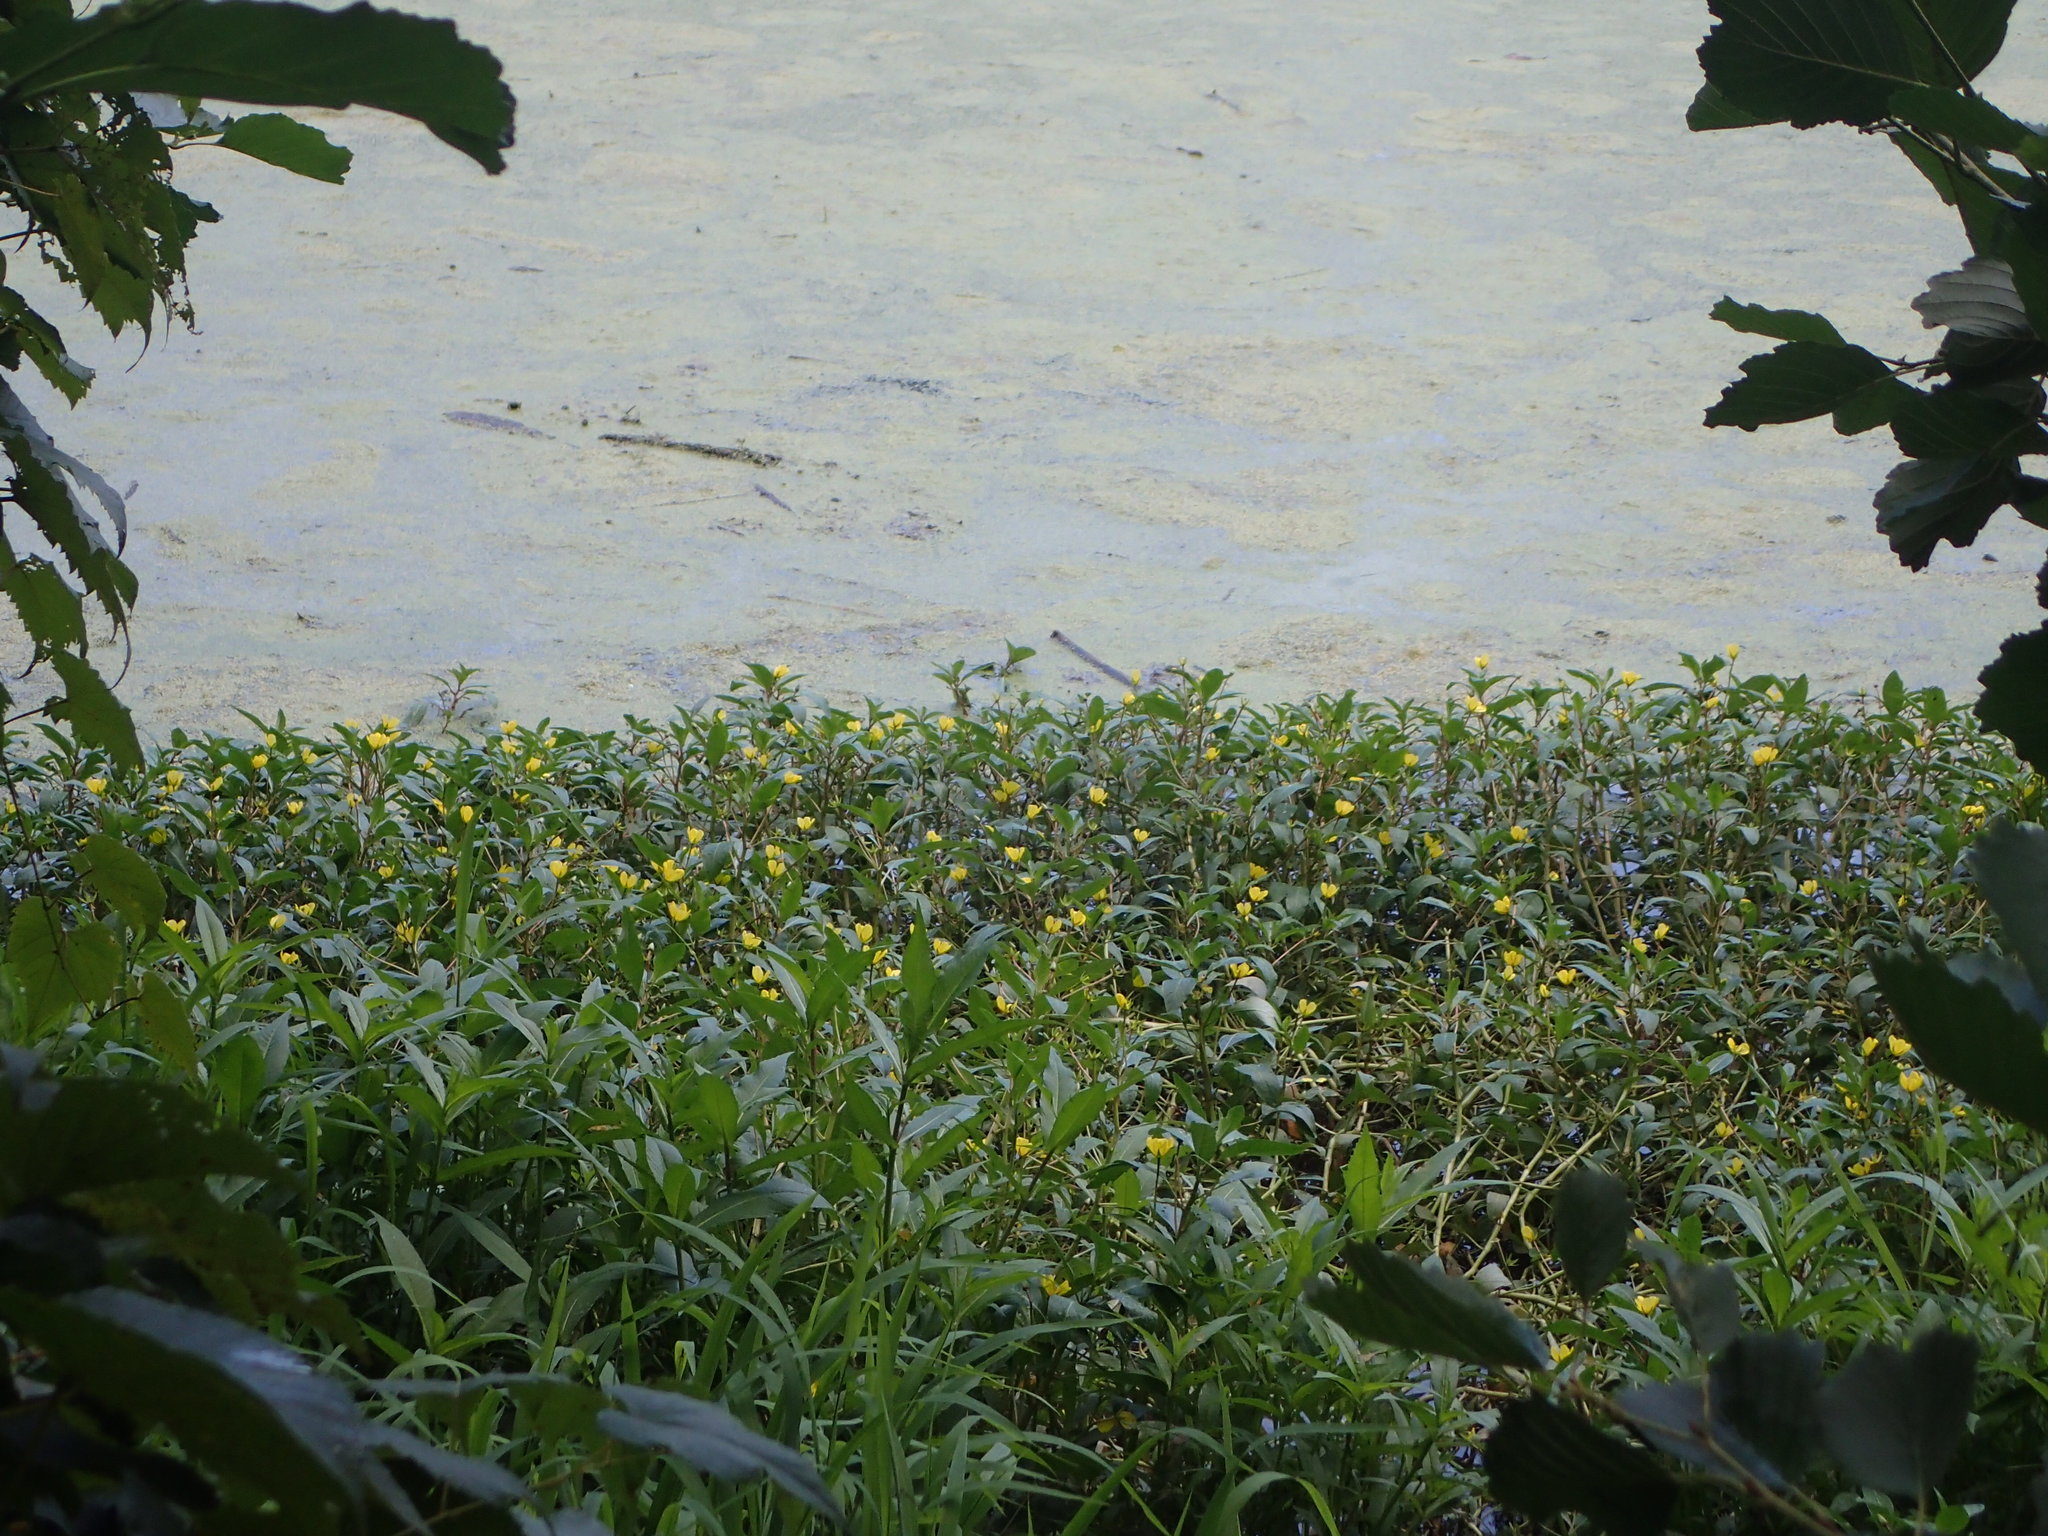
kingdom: Plantae
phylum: Tracheophyta
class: Magnoliopsida
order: Myrtales
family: Onagraceae
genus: Ludwigia
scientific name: Ludwigia peploides
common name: Floating primrose-willow
